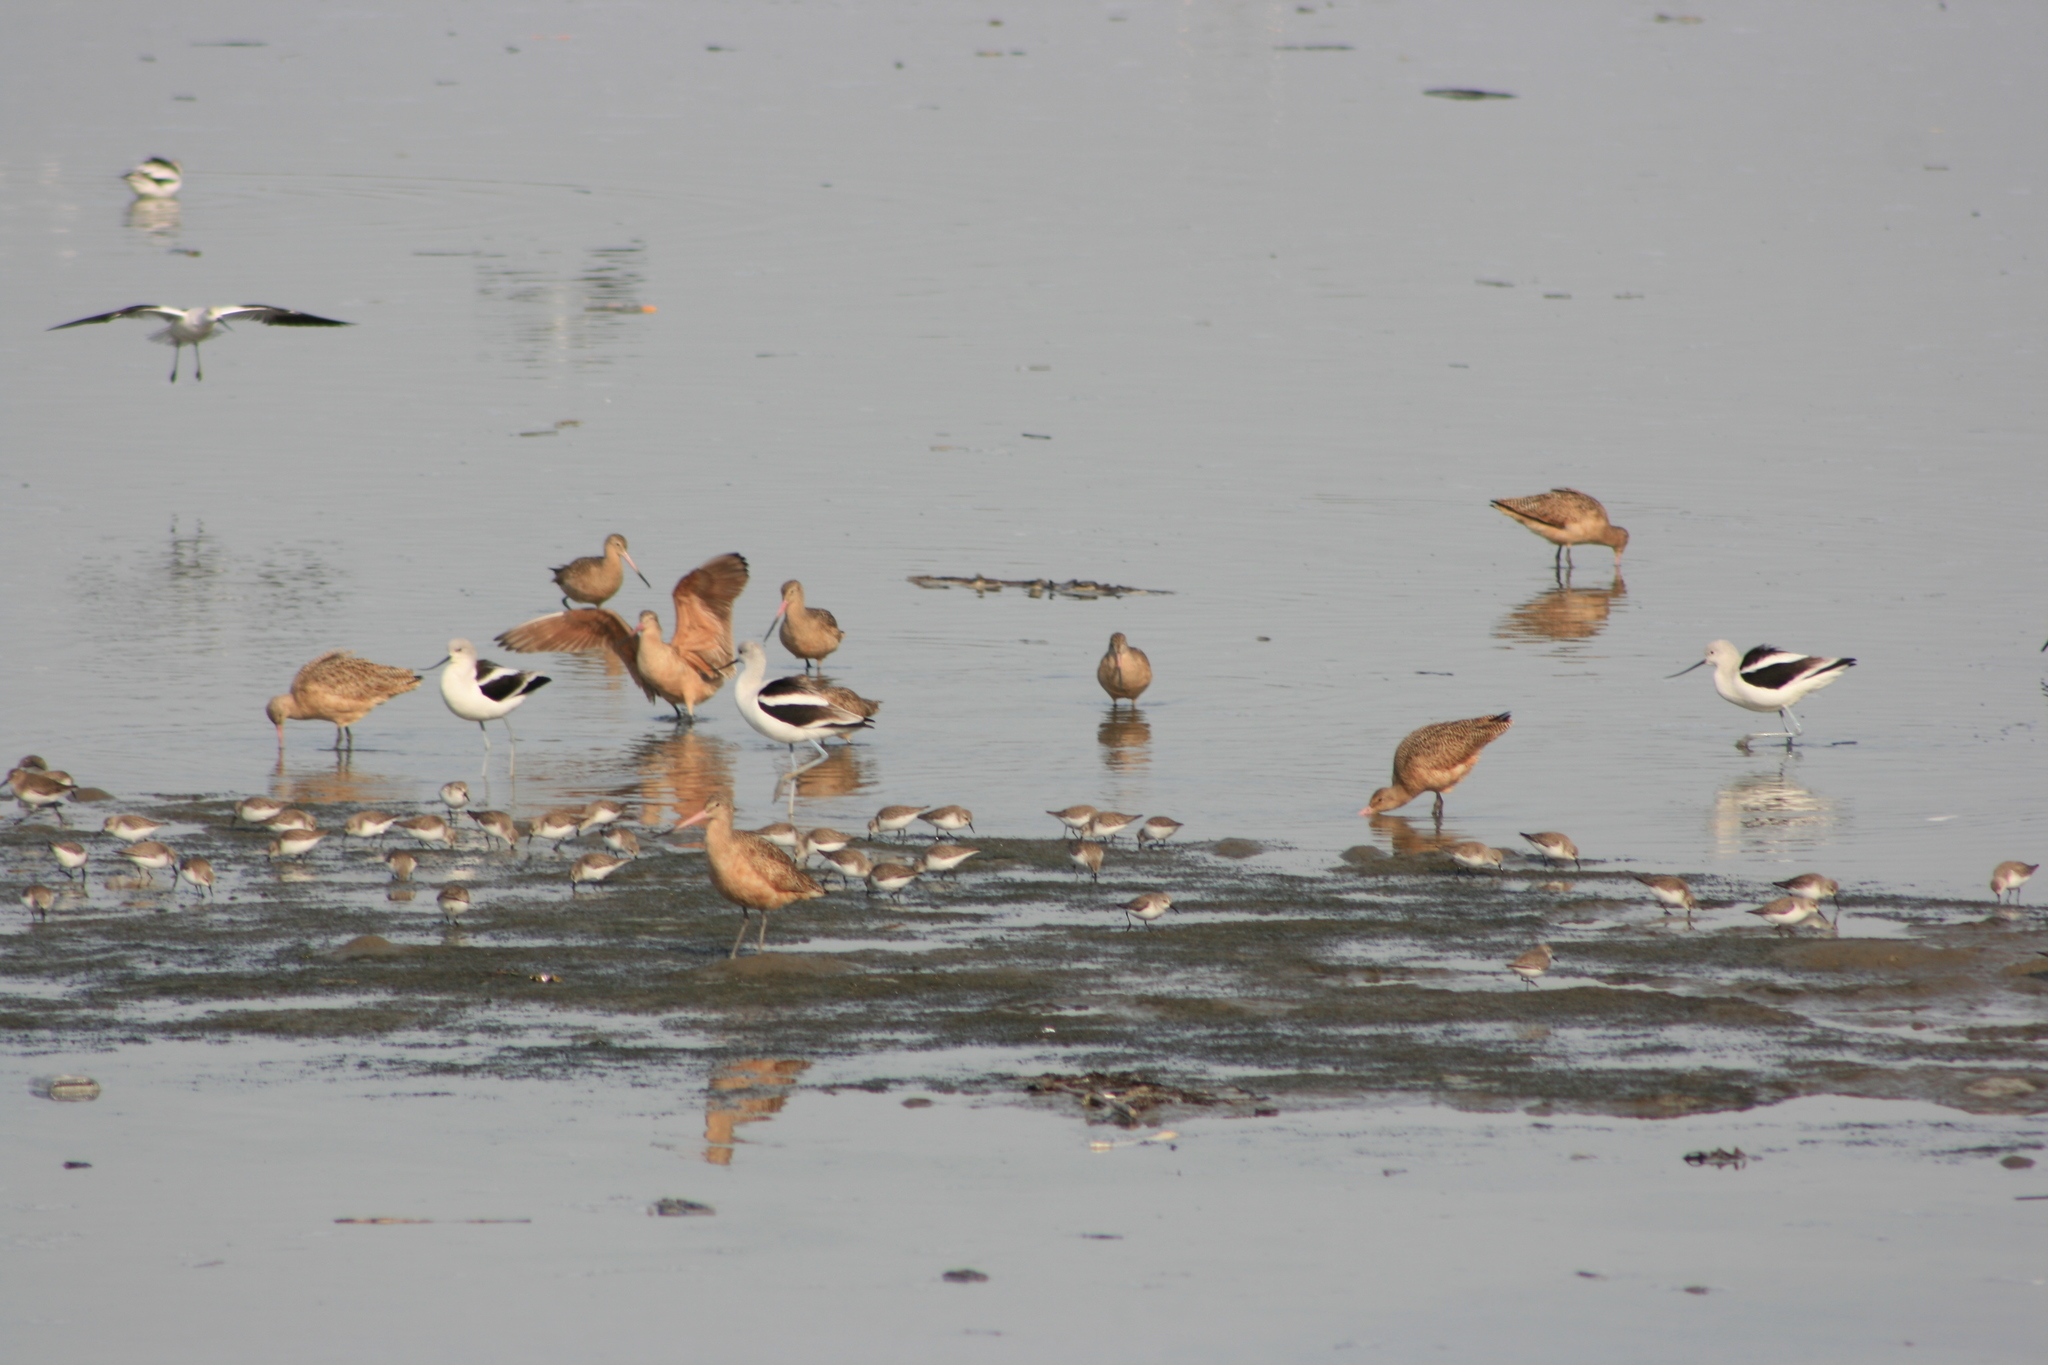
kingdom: Animalia
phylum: Chordata
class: Aves
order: Charadriiformes
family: Scolopacidae
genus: Limosa
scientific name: Limosa fedoa
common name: Marbled godwit
